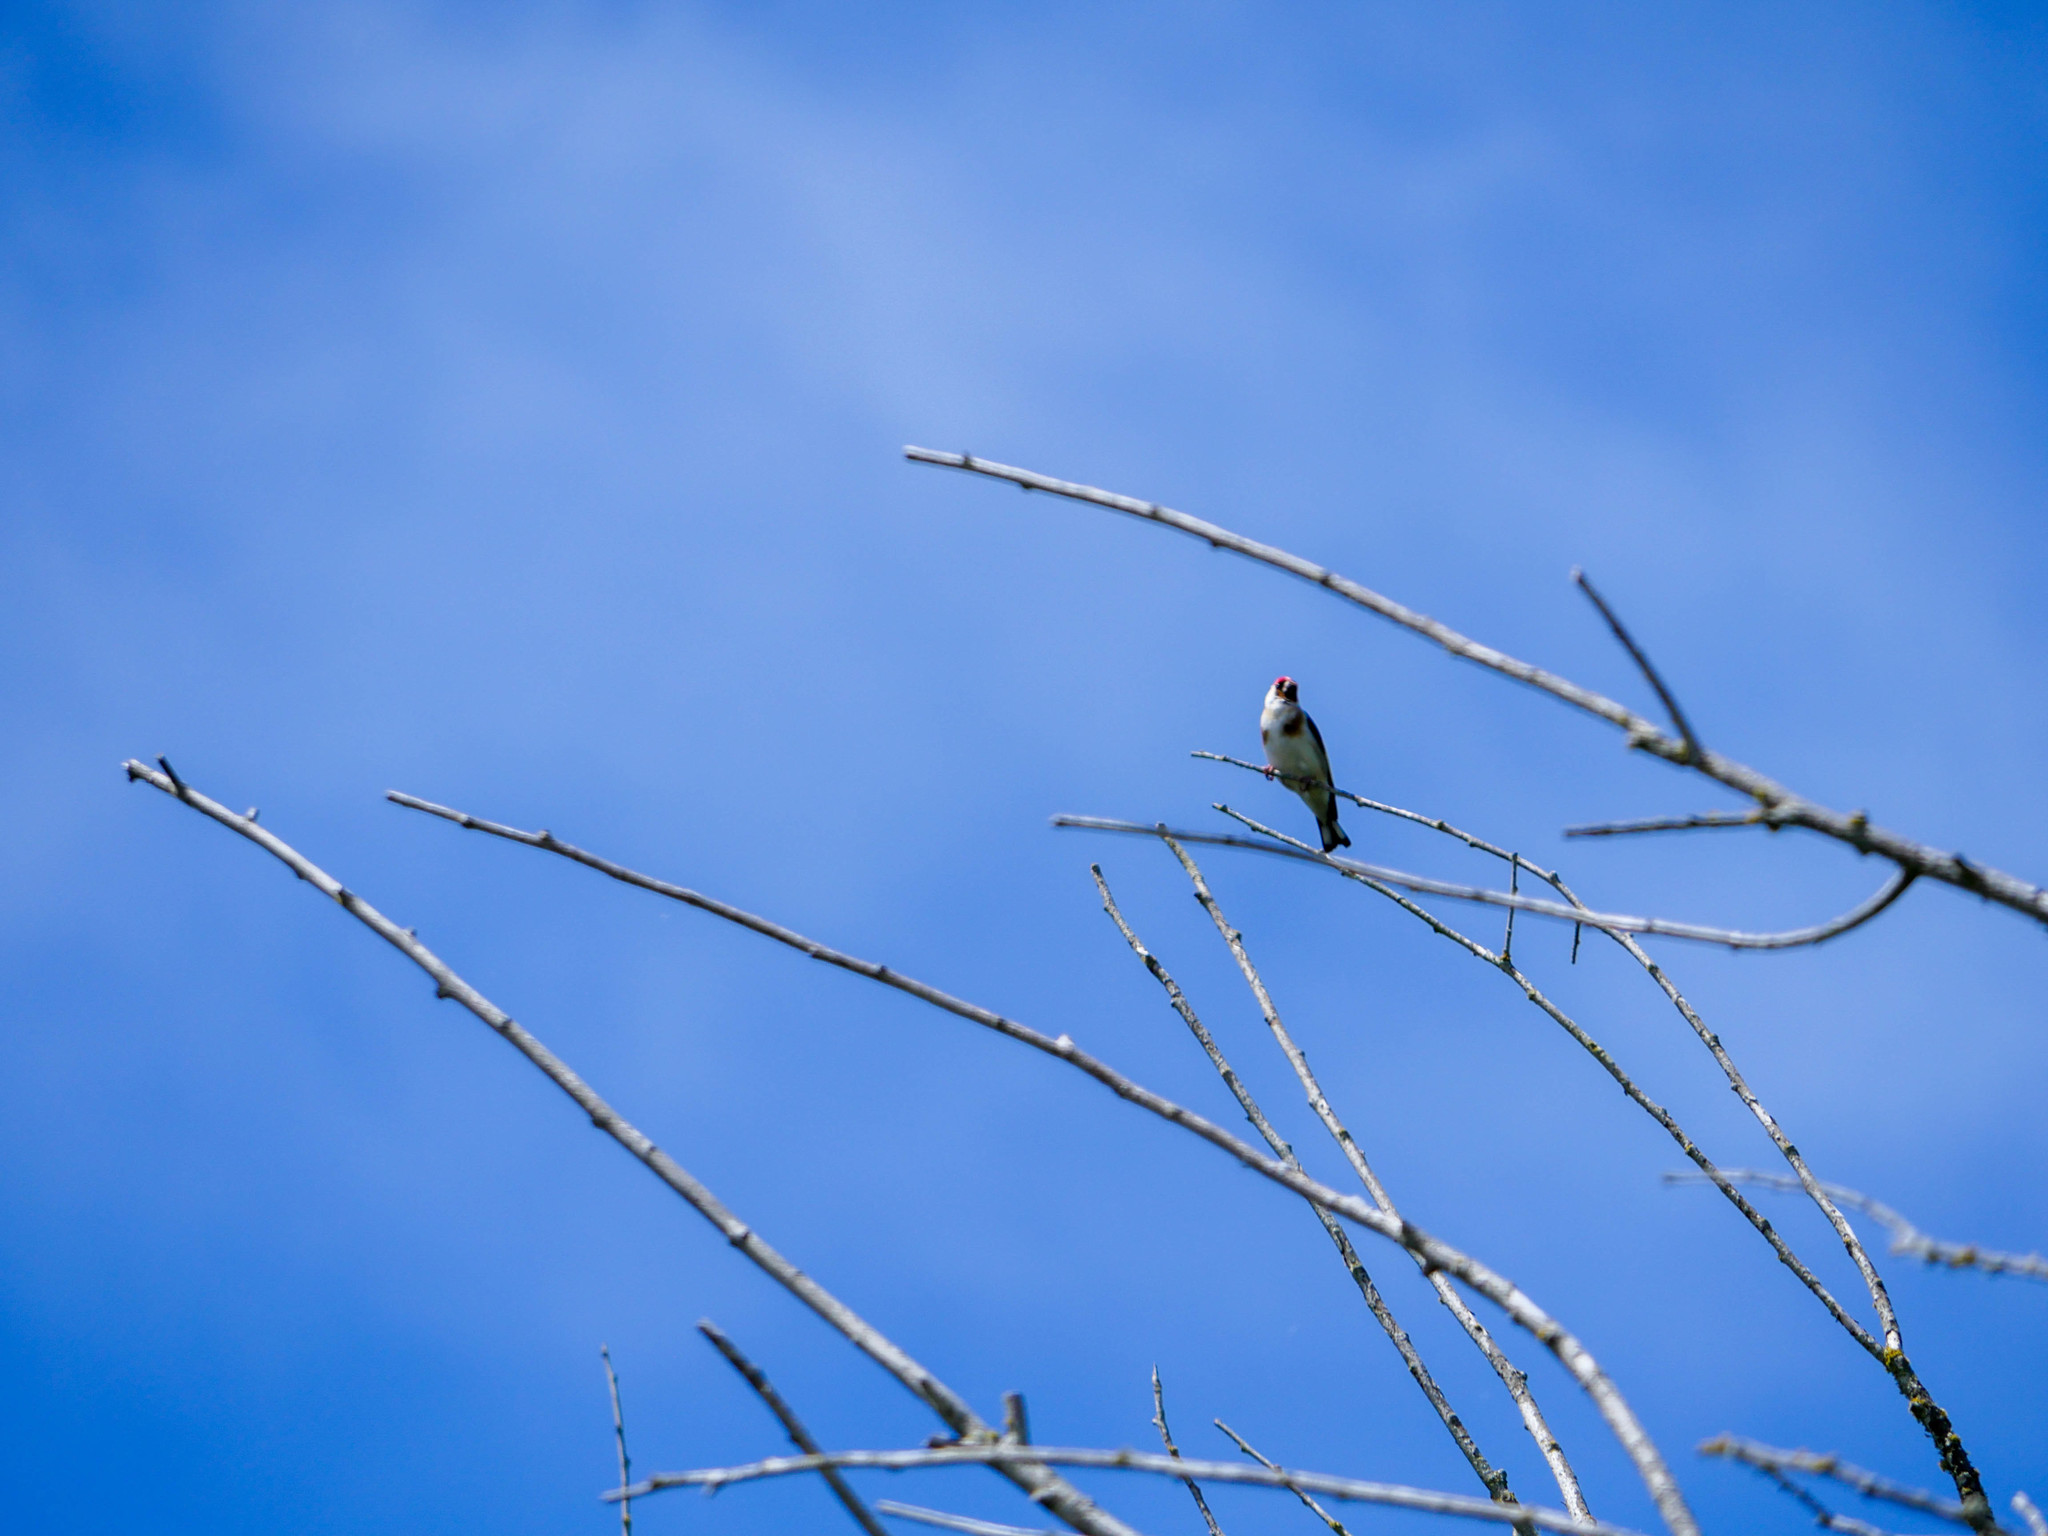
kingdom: Animalia
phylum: Chordata
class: Aves
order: Passeriformes
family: Fringillidae
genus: Carduelis
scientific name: Carduelis carduelis
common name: European goldfinch
